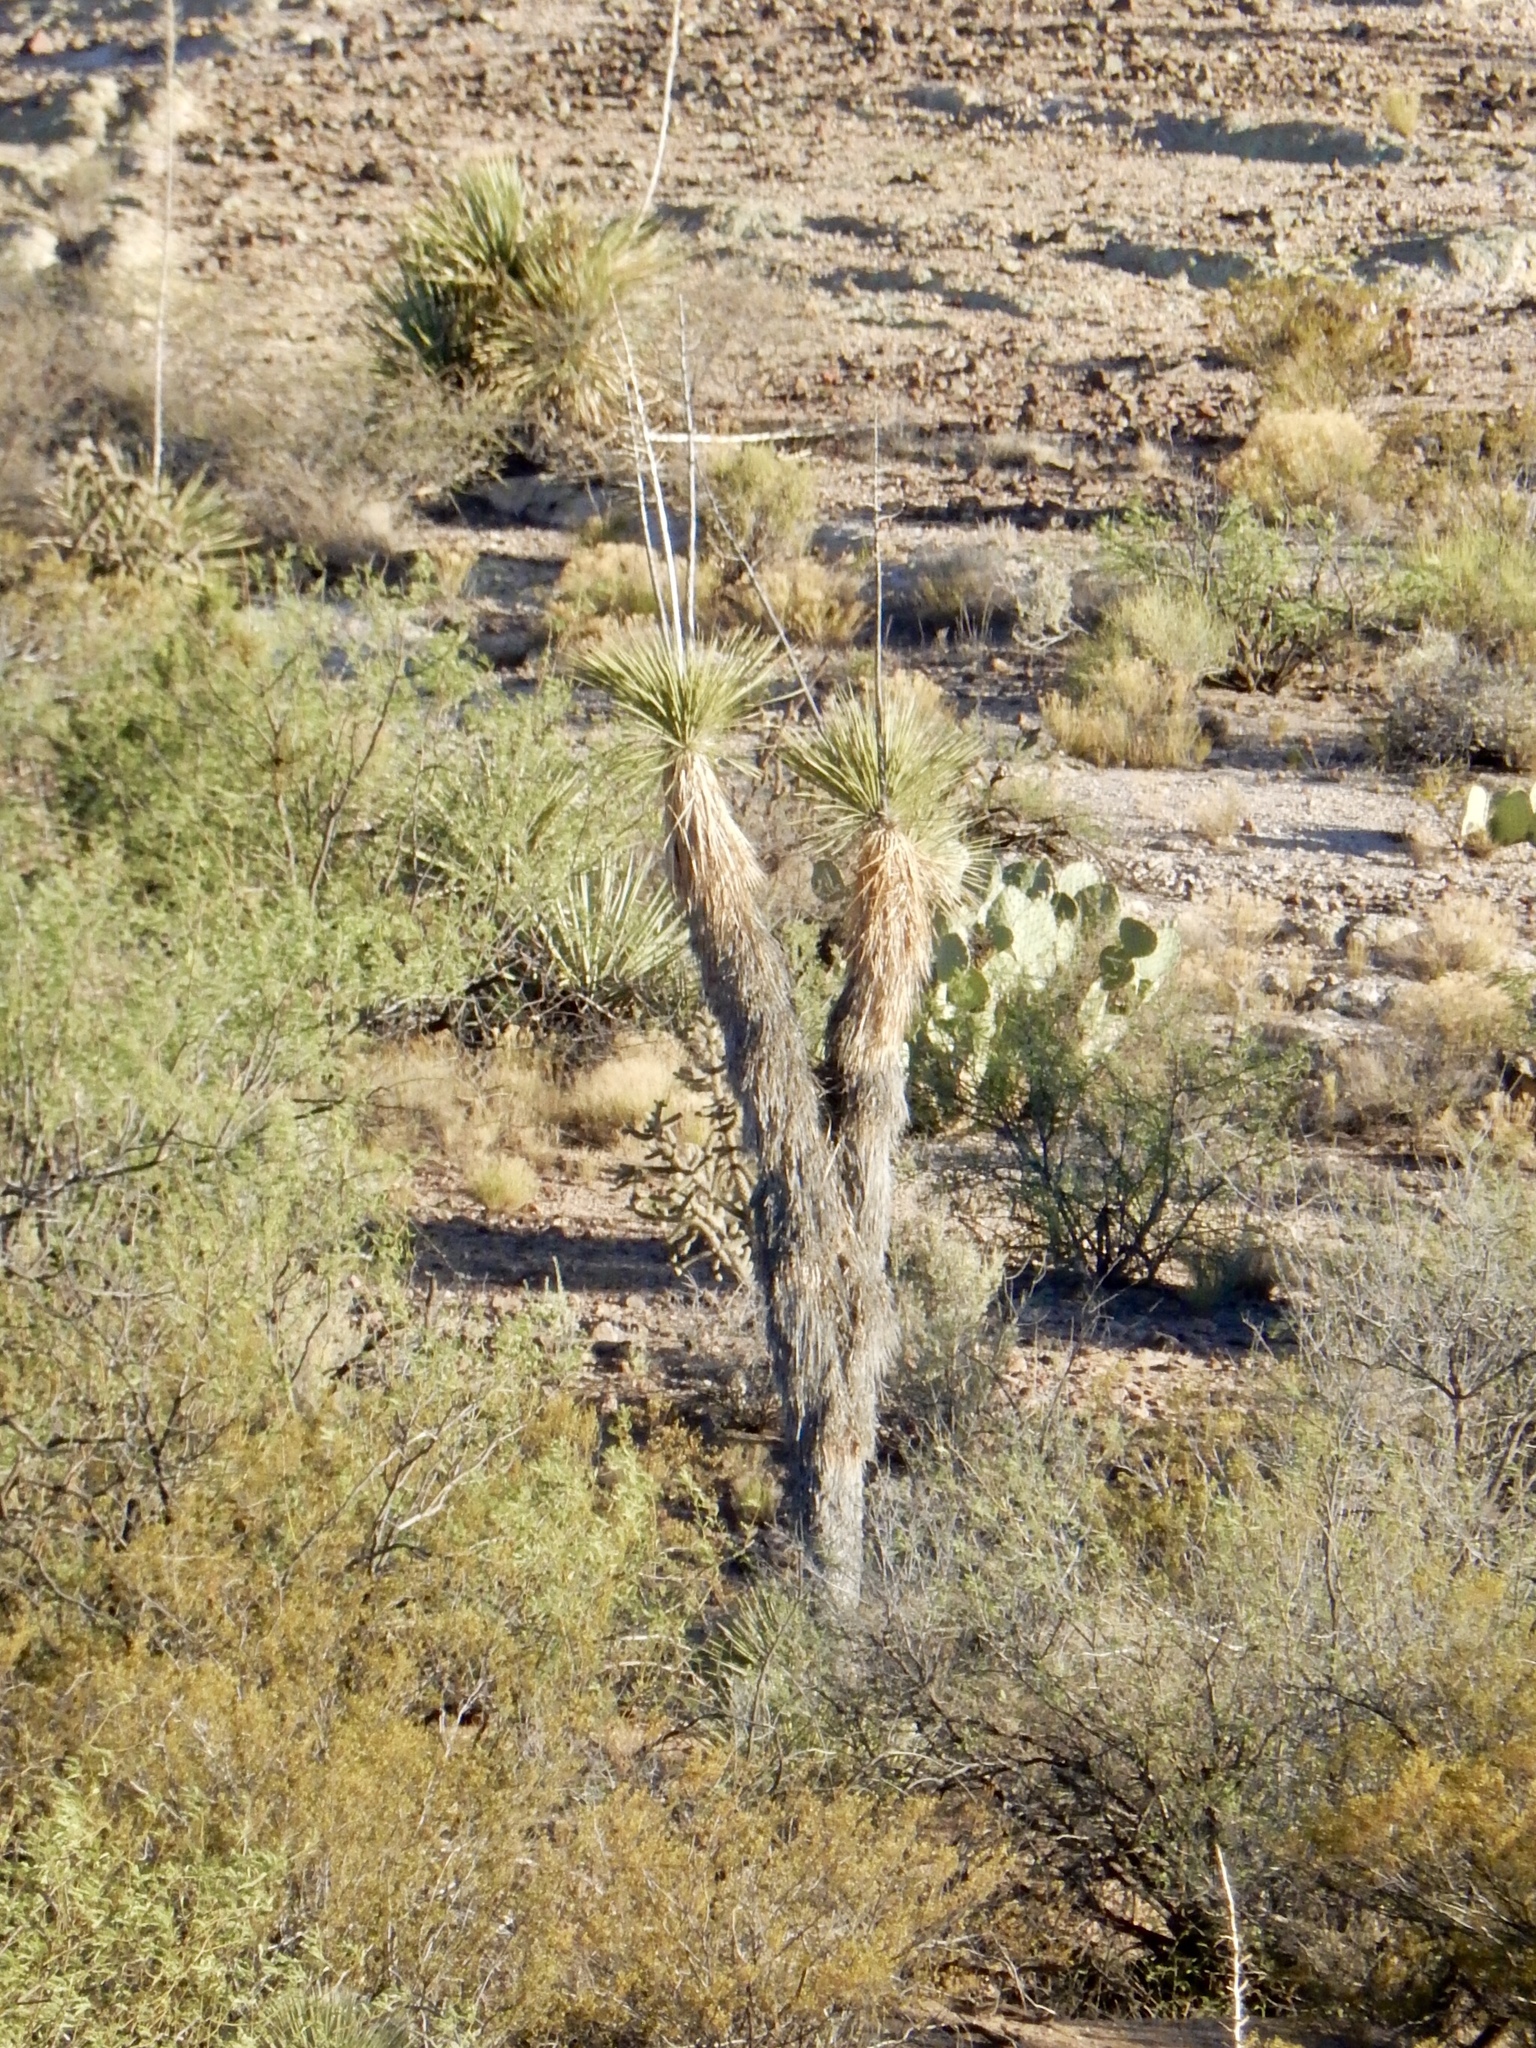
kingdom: Plantae
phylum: Tracheophyta
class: Liliopsida
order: Asparagales
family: Asparagaceae
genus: Yucca
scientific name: Yucca elata
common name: Palmella
